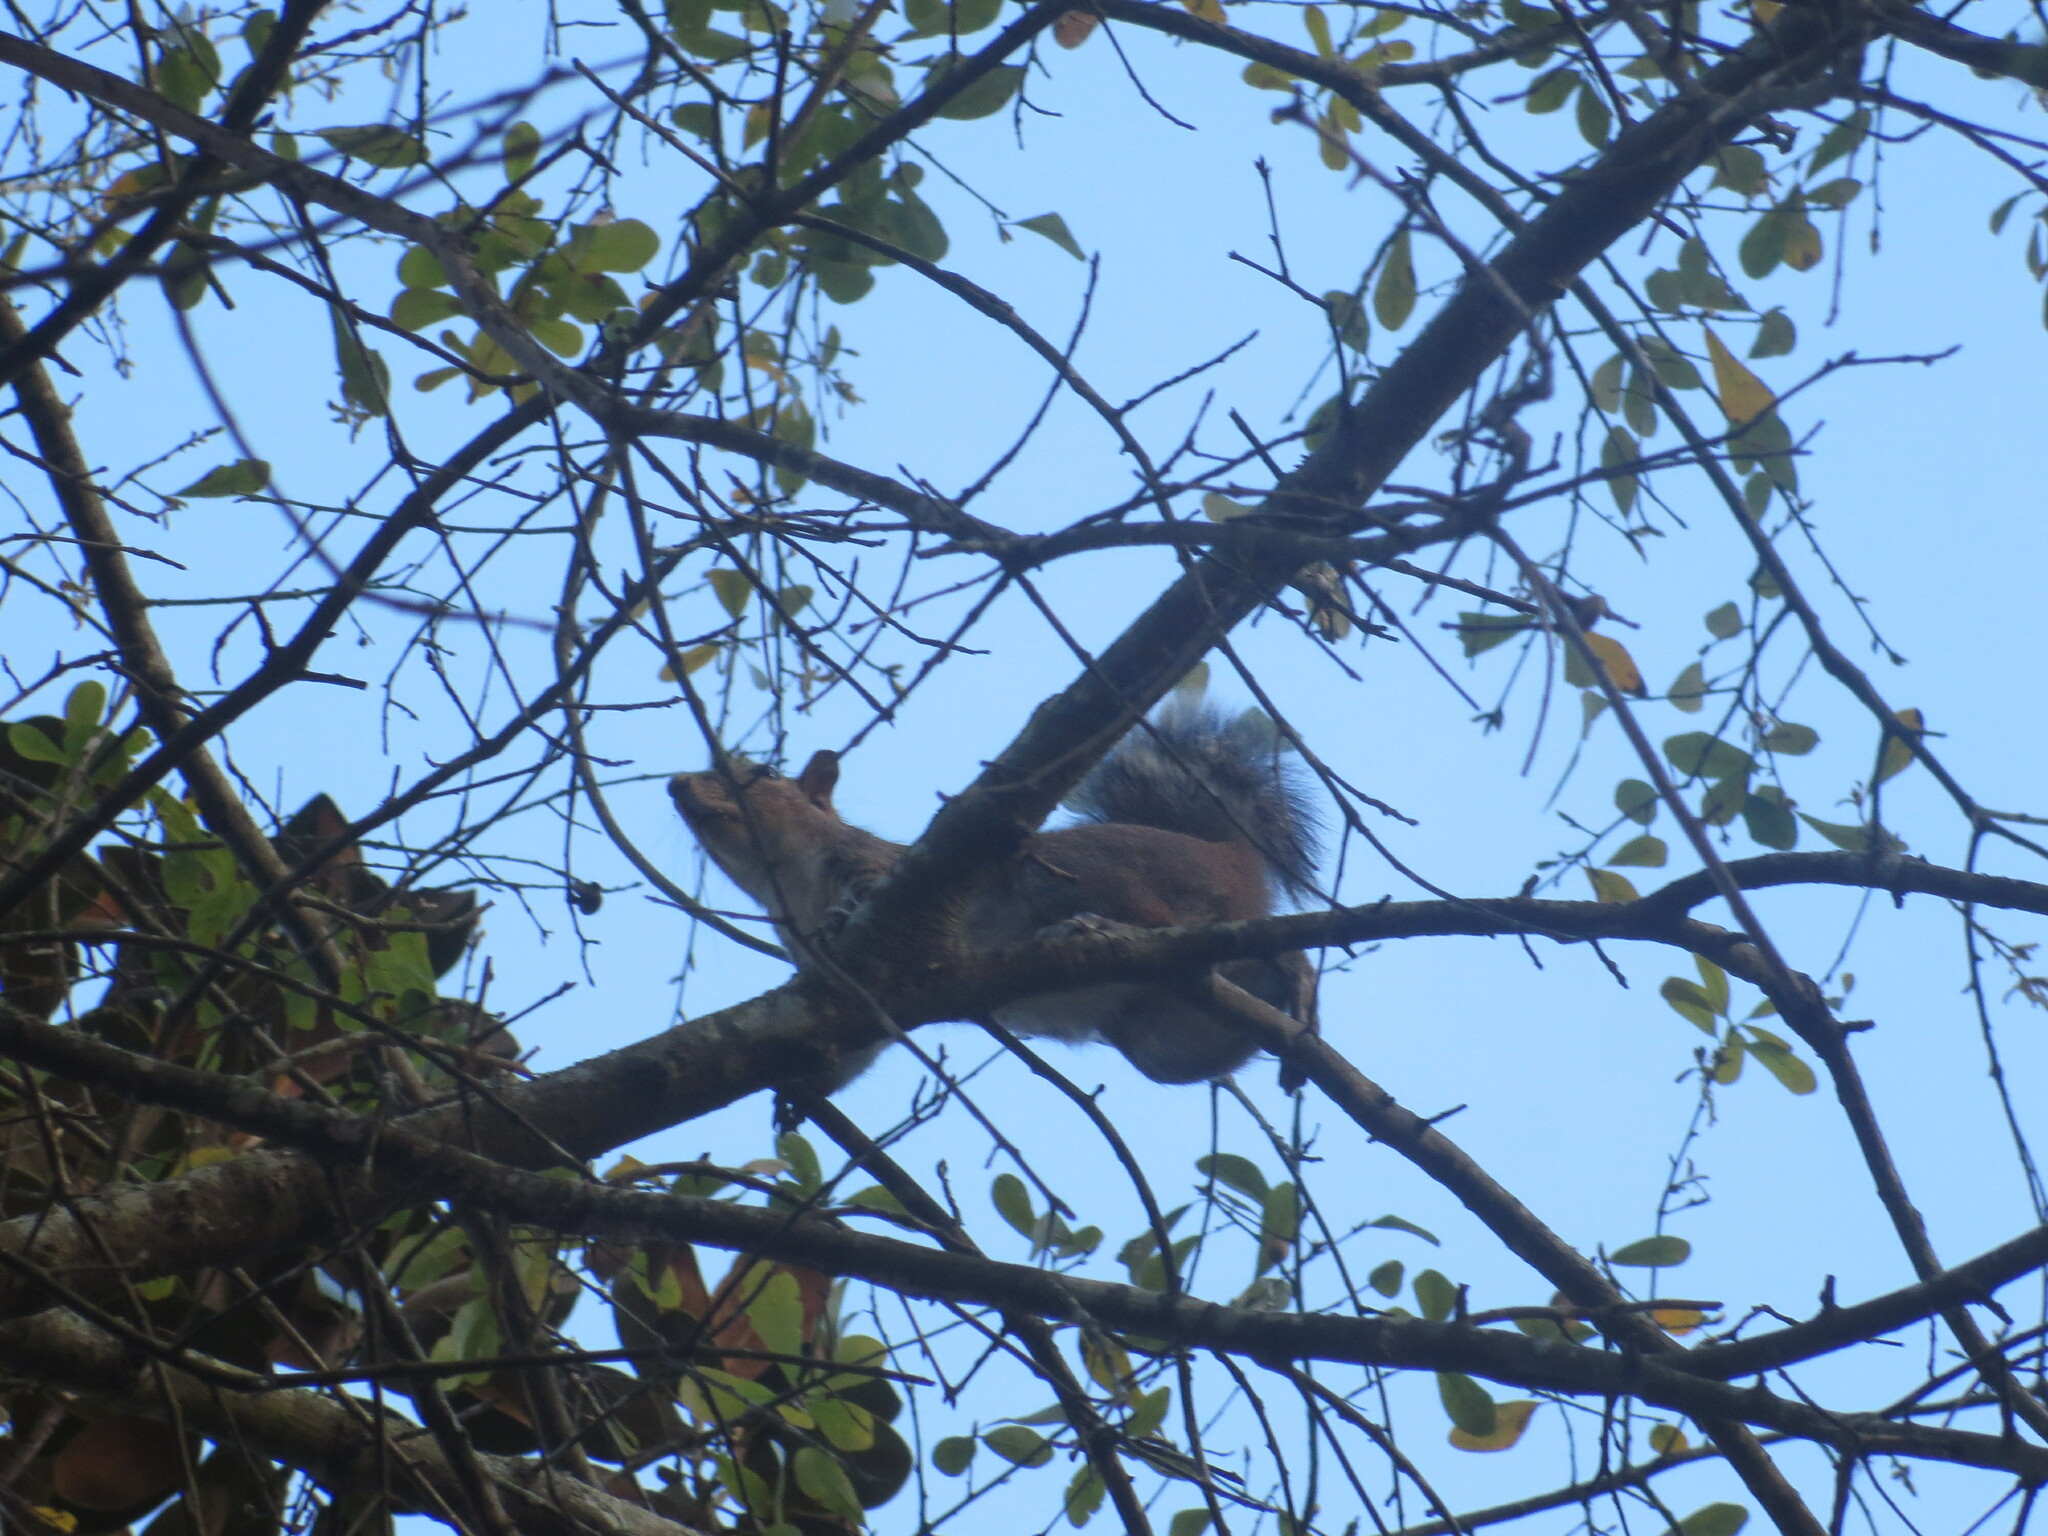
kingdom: Animalia
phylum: Chordata
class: Mammalia
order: Rodentia
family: Sciuridae
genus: Sciurus
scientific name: Sciurus carolinensis
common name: Eastern gray squirrel
